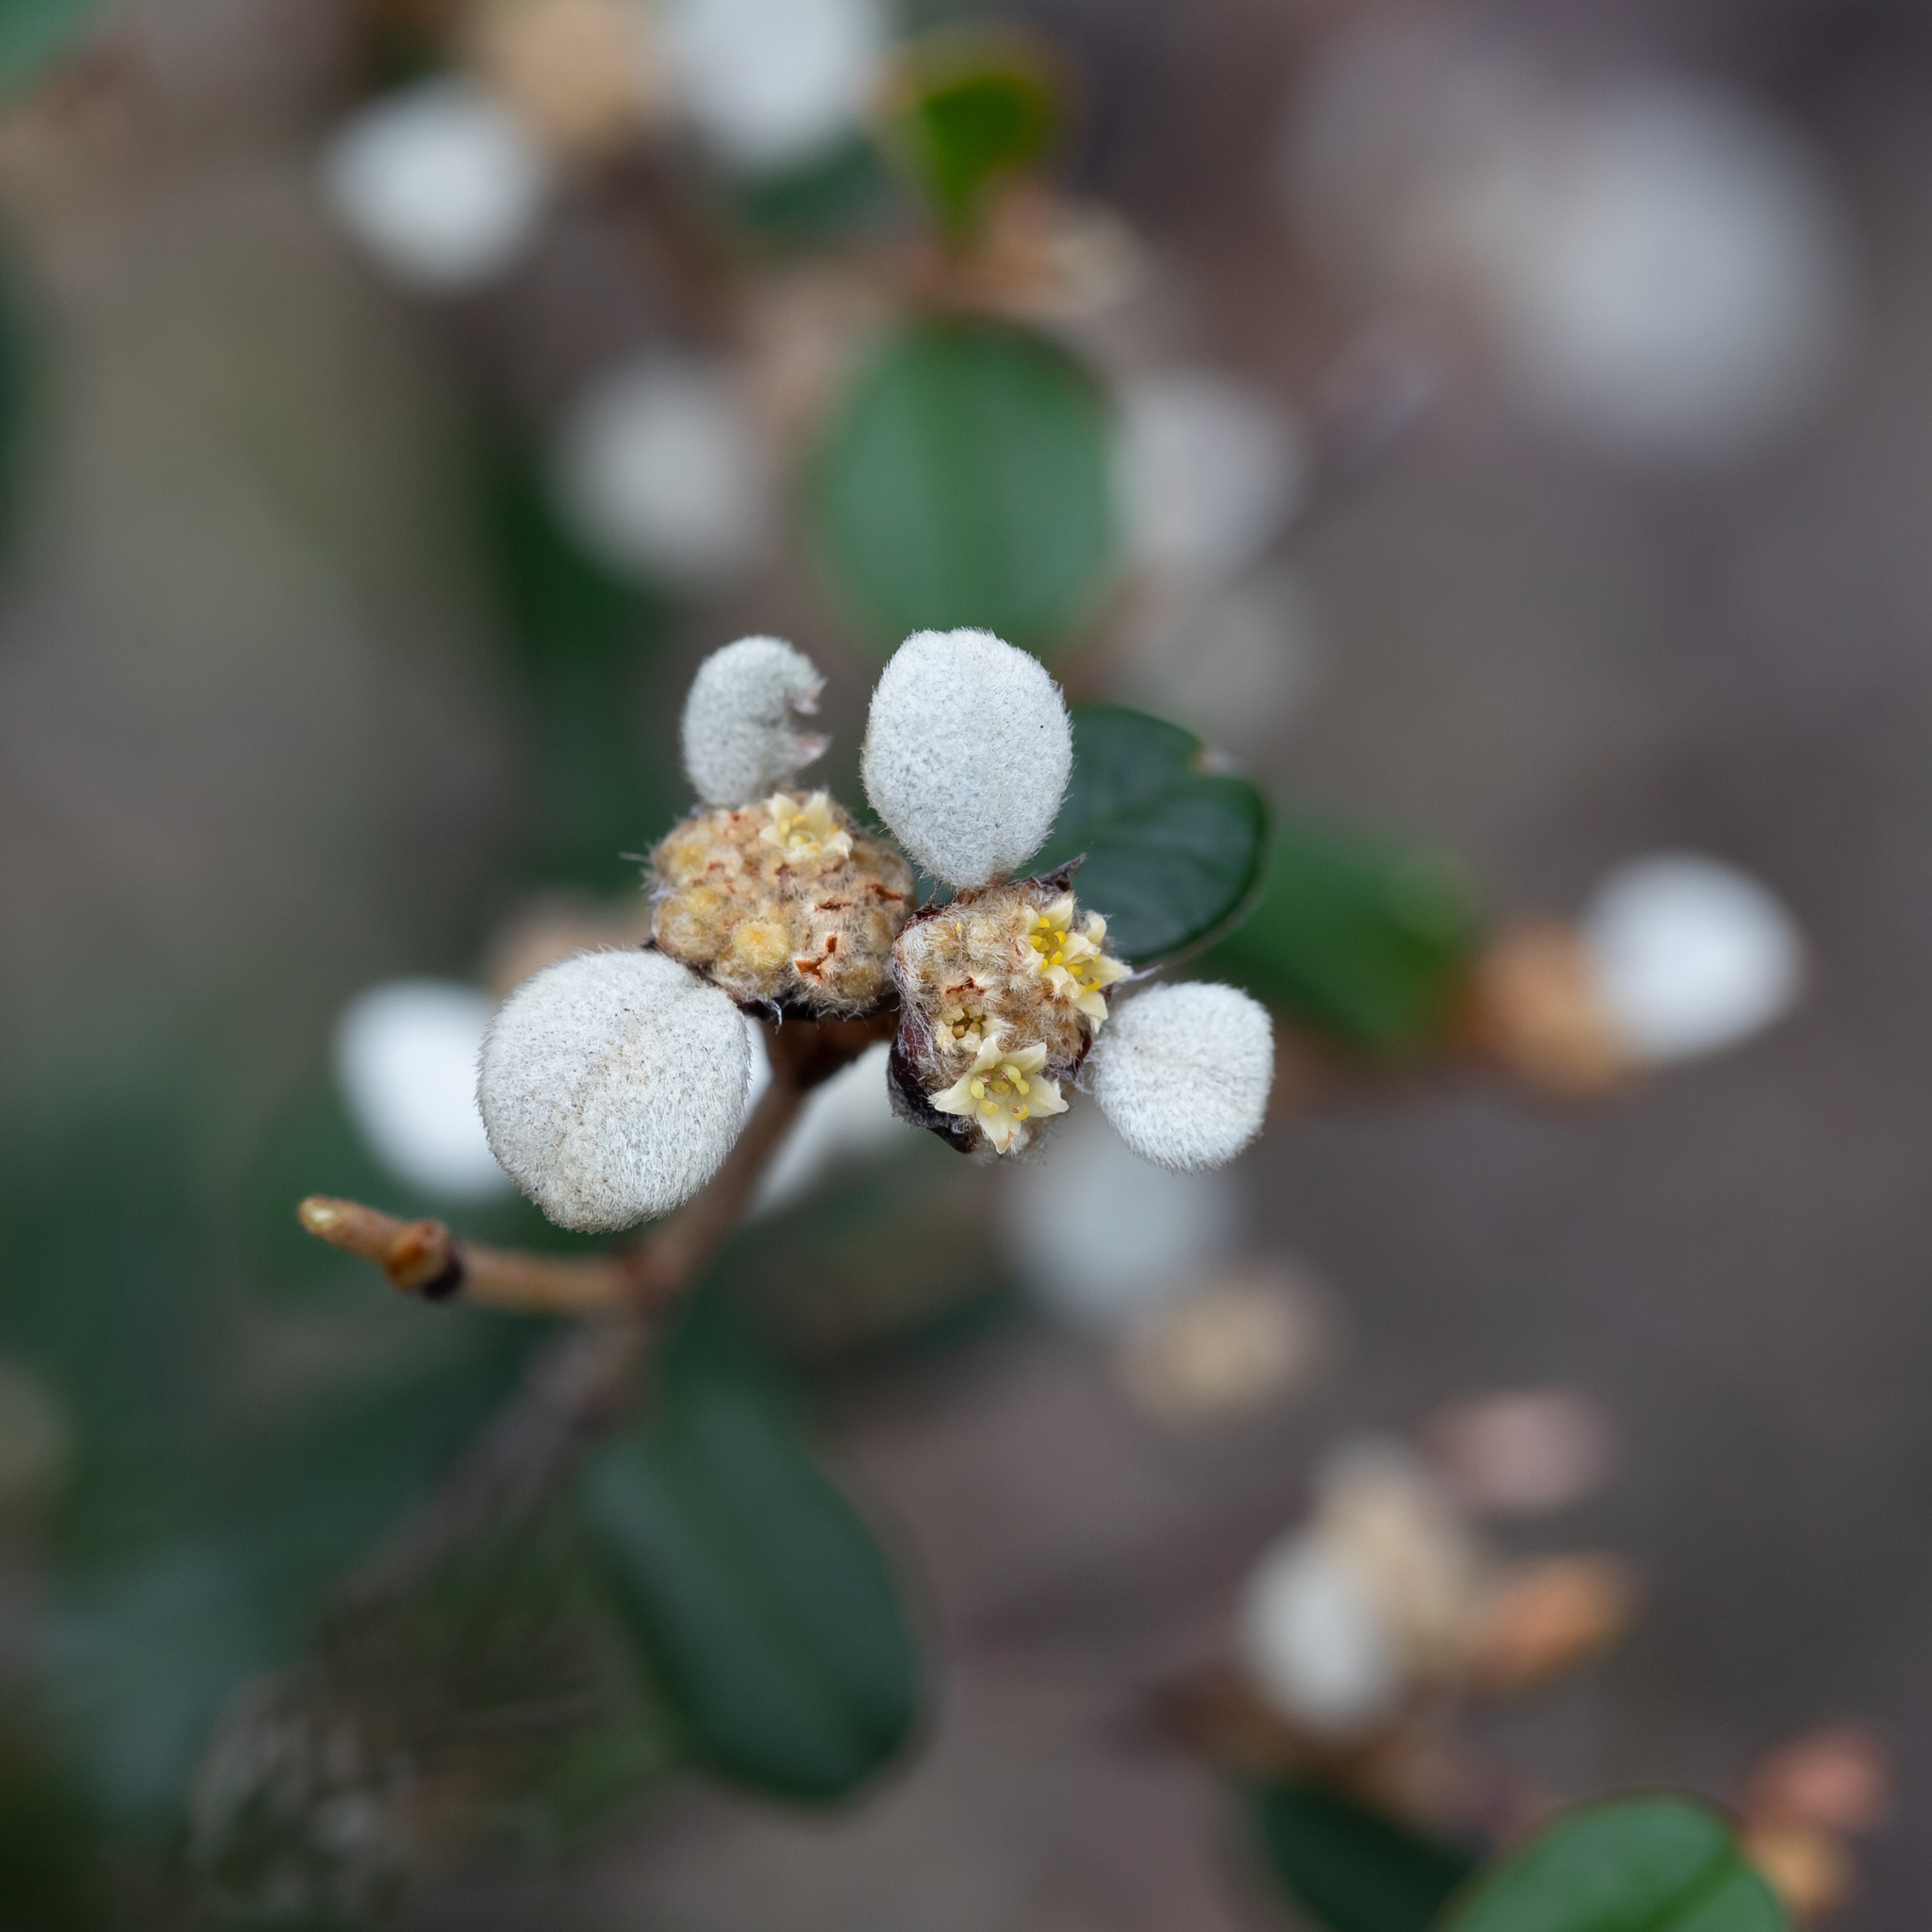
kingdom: Plantae
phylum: Tracheophyta
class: Magnoliopsida
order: Rosales
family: Rhamnaceae
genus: Spyridium
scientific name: Spyridium thymifolium
